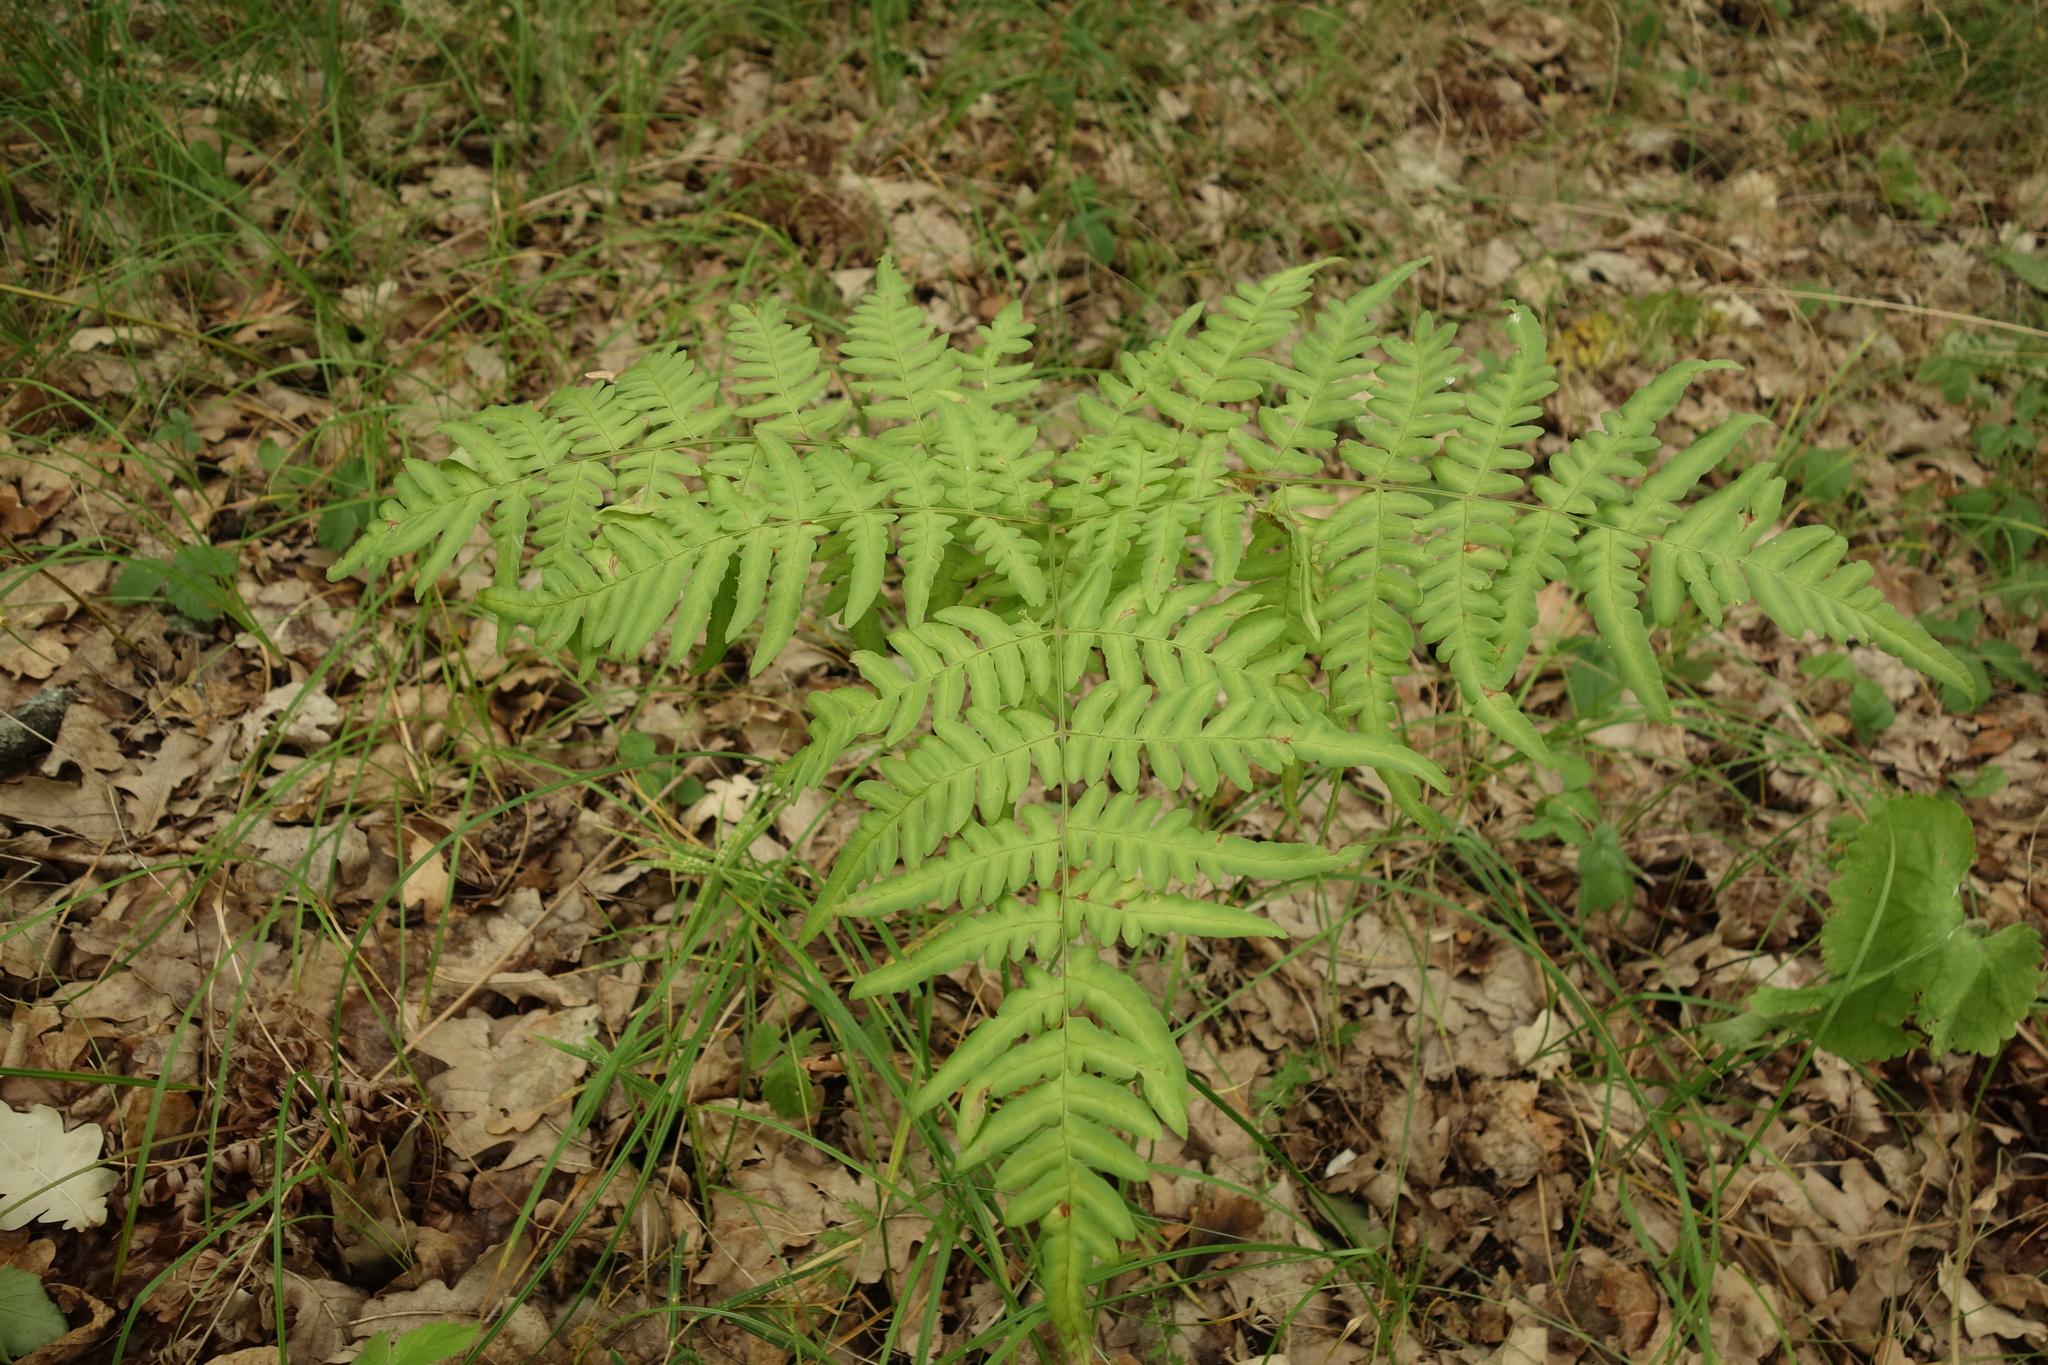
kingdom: Plantae
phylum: Tracheophyta
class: Polypodiopsida
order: Polypodiales
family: Dennstaedtiaceae
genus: Pteridium
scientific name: Pteridium aquilinum
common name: Bracken
